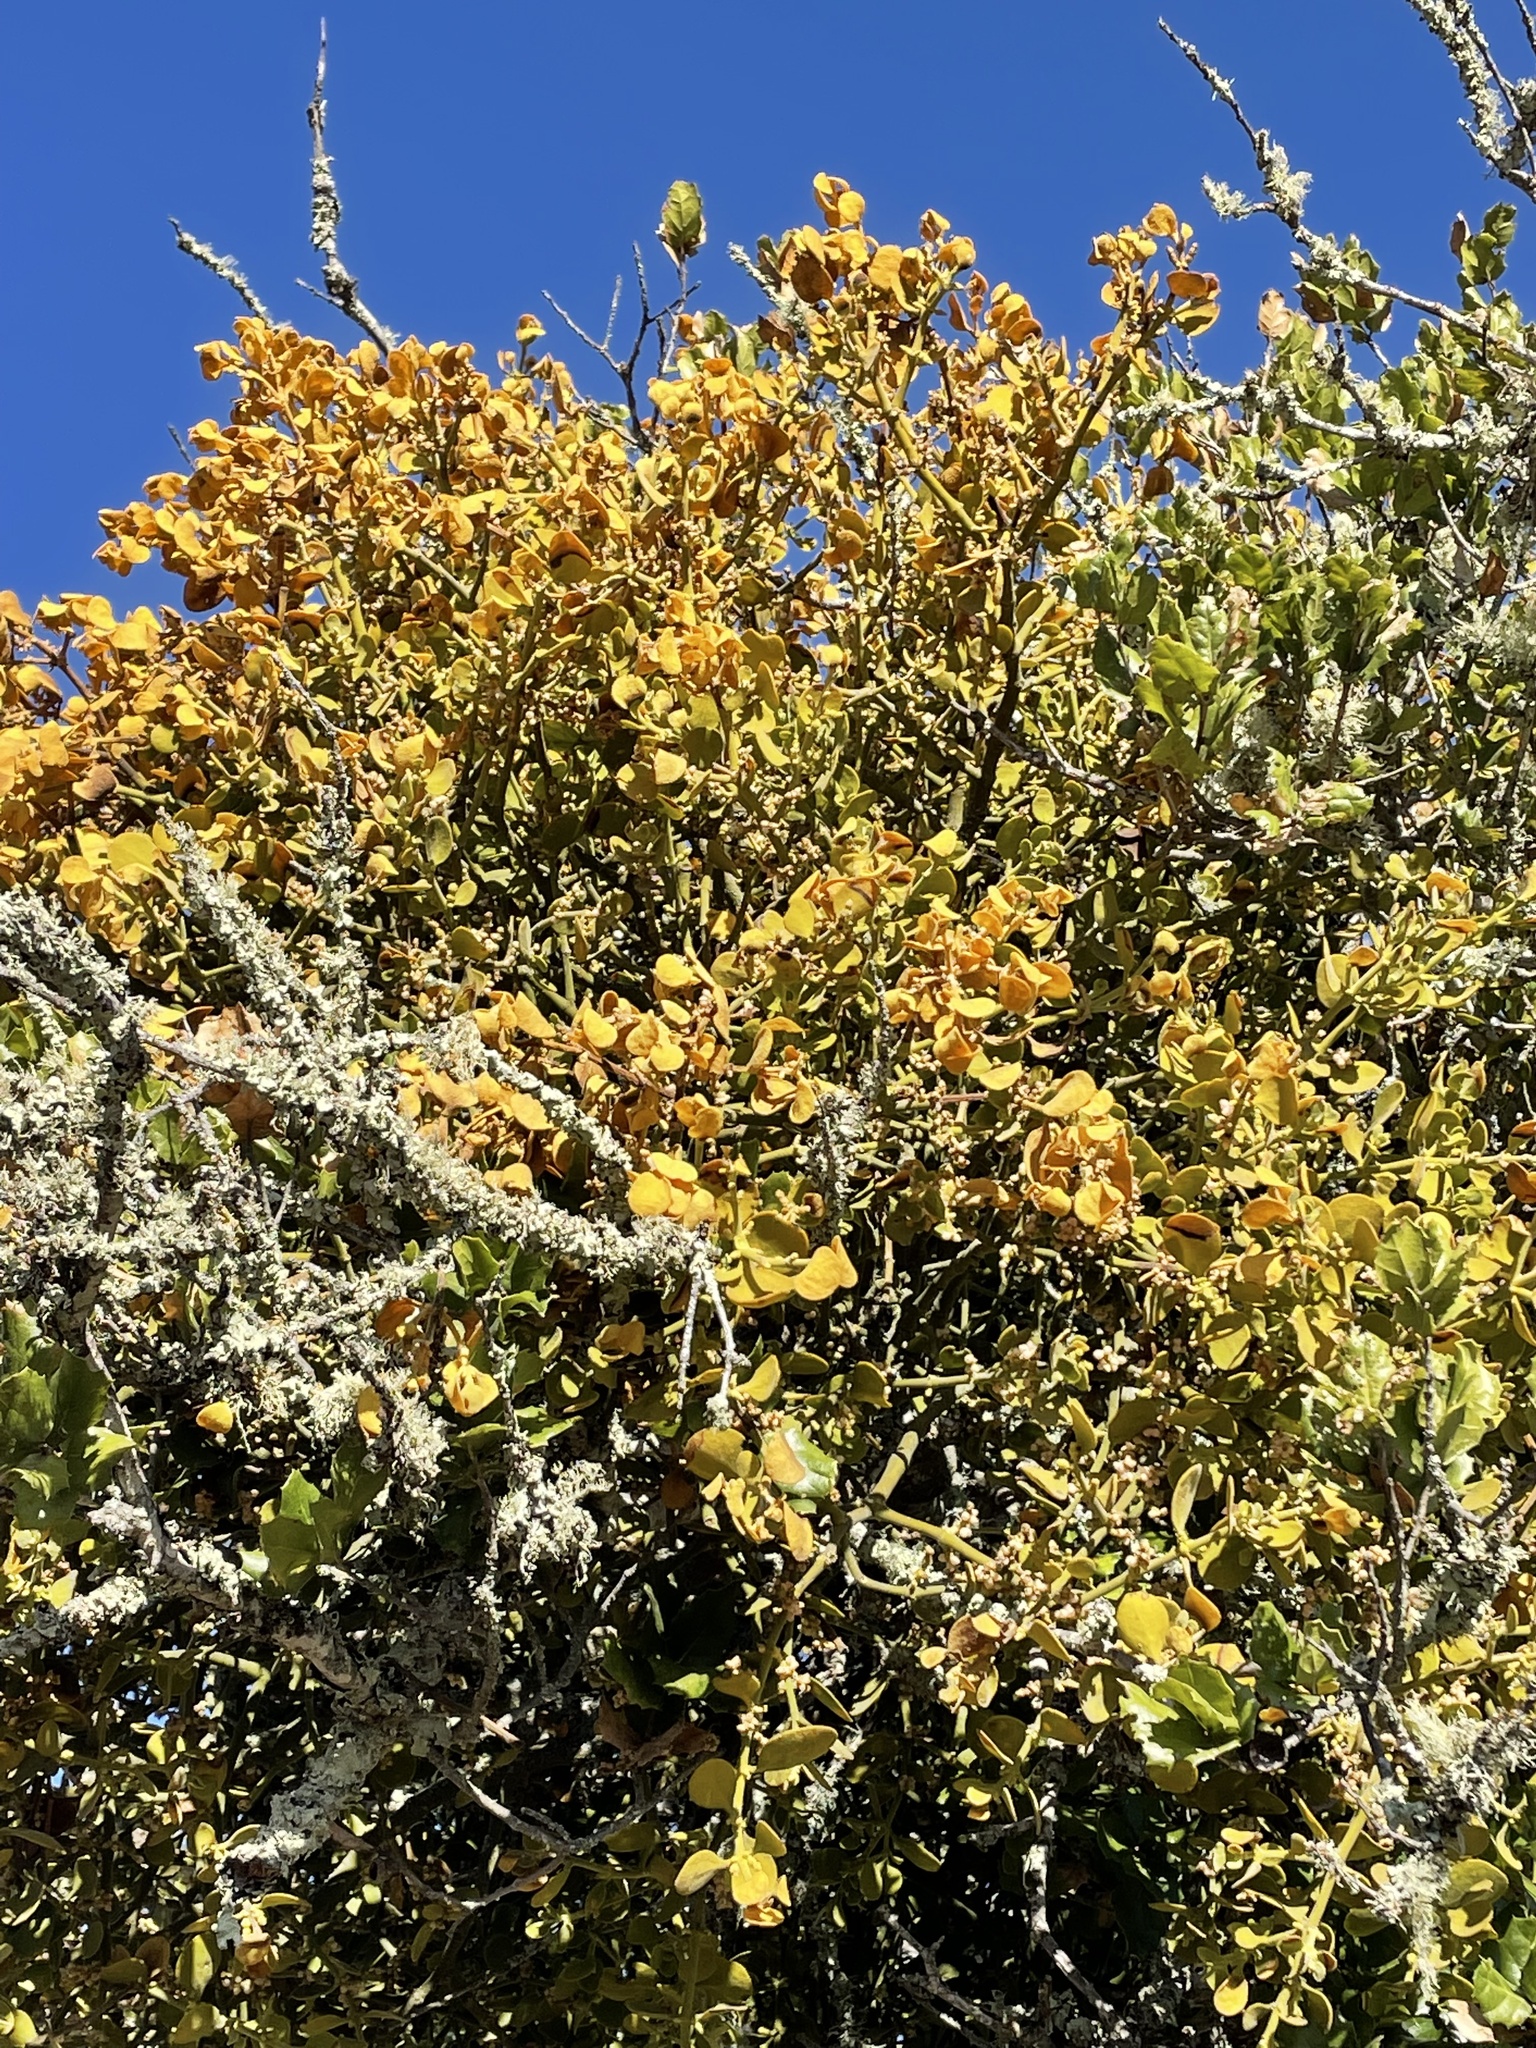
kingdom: Plantae
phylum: Tracheophyta
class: Magnoliopsida
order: Fagales
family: Fagaceae
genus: Quercus
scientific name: Quercus agrifolia
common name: California live oak
